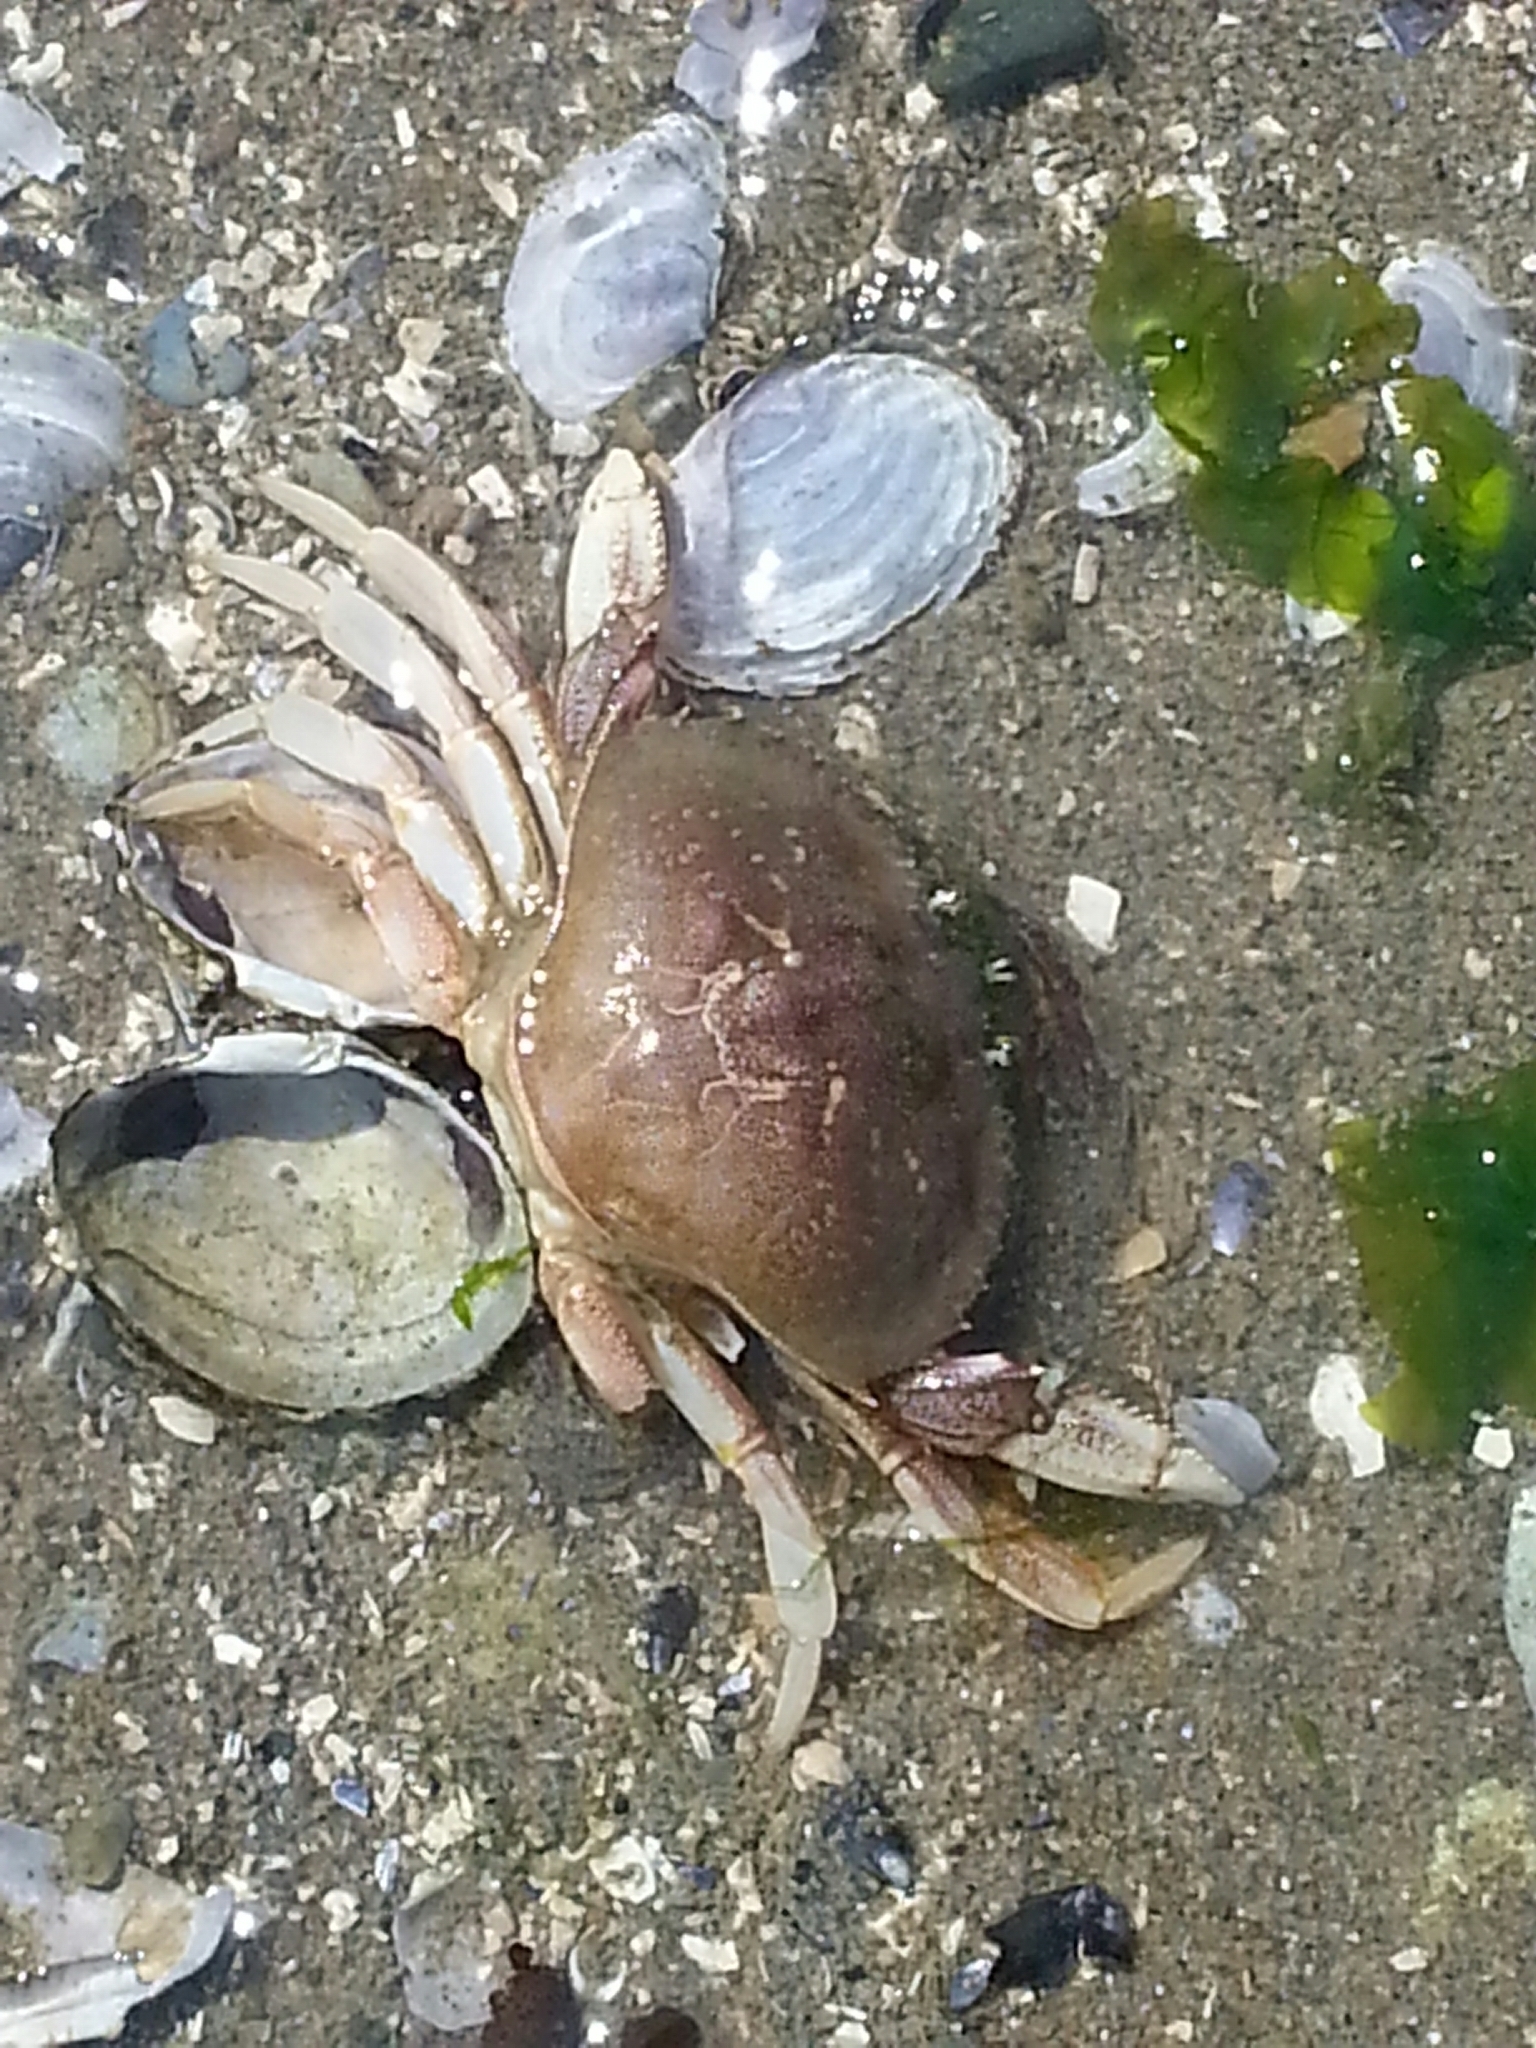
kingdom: Animalia
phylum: Arthropoda
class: Malacostraca
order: Decapoda
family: Cancridae
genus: Metacarcinus
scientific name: Metacarcinus magister
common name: Californian crab
